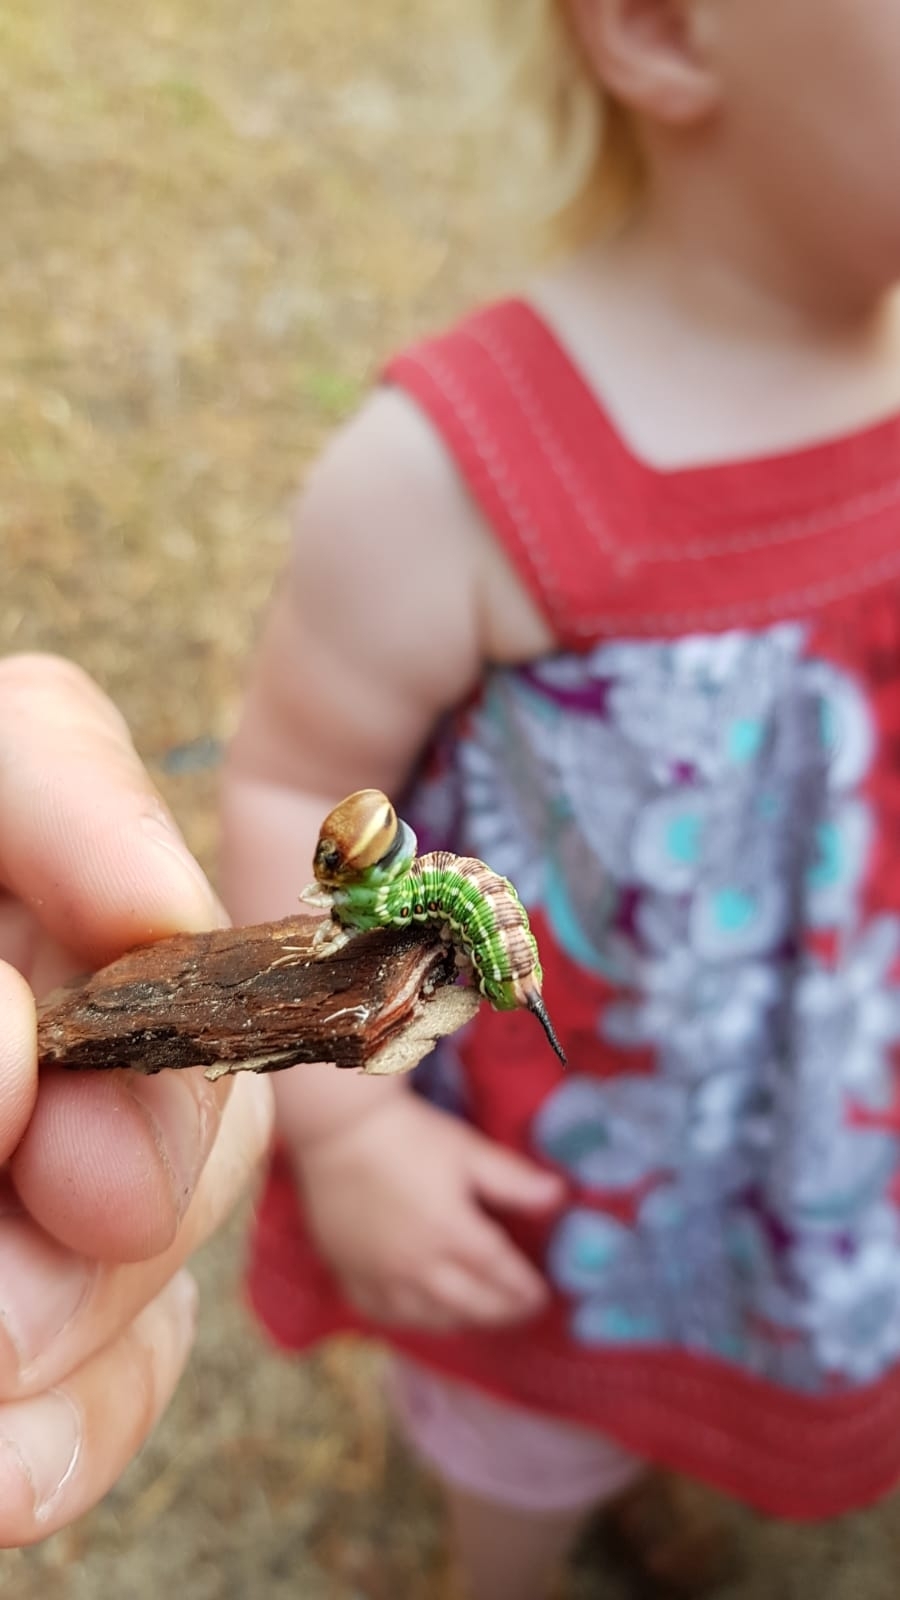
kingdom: Animalia
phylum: Arthropoda
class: Insecta
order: Lepidoptera
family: Sphingidae
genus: Sphinx
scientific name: Sphinx pinastri
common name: Pine hawk-moth
